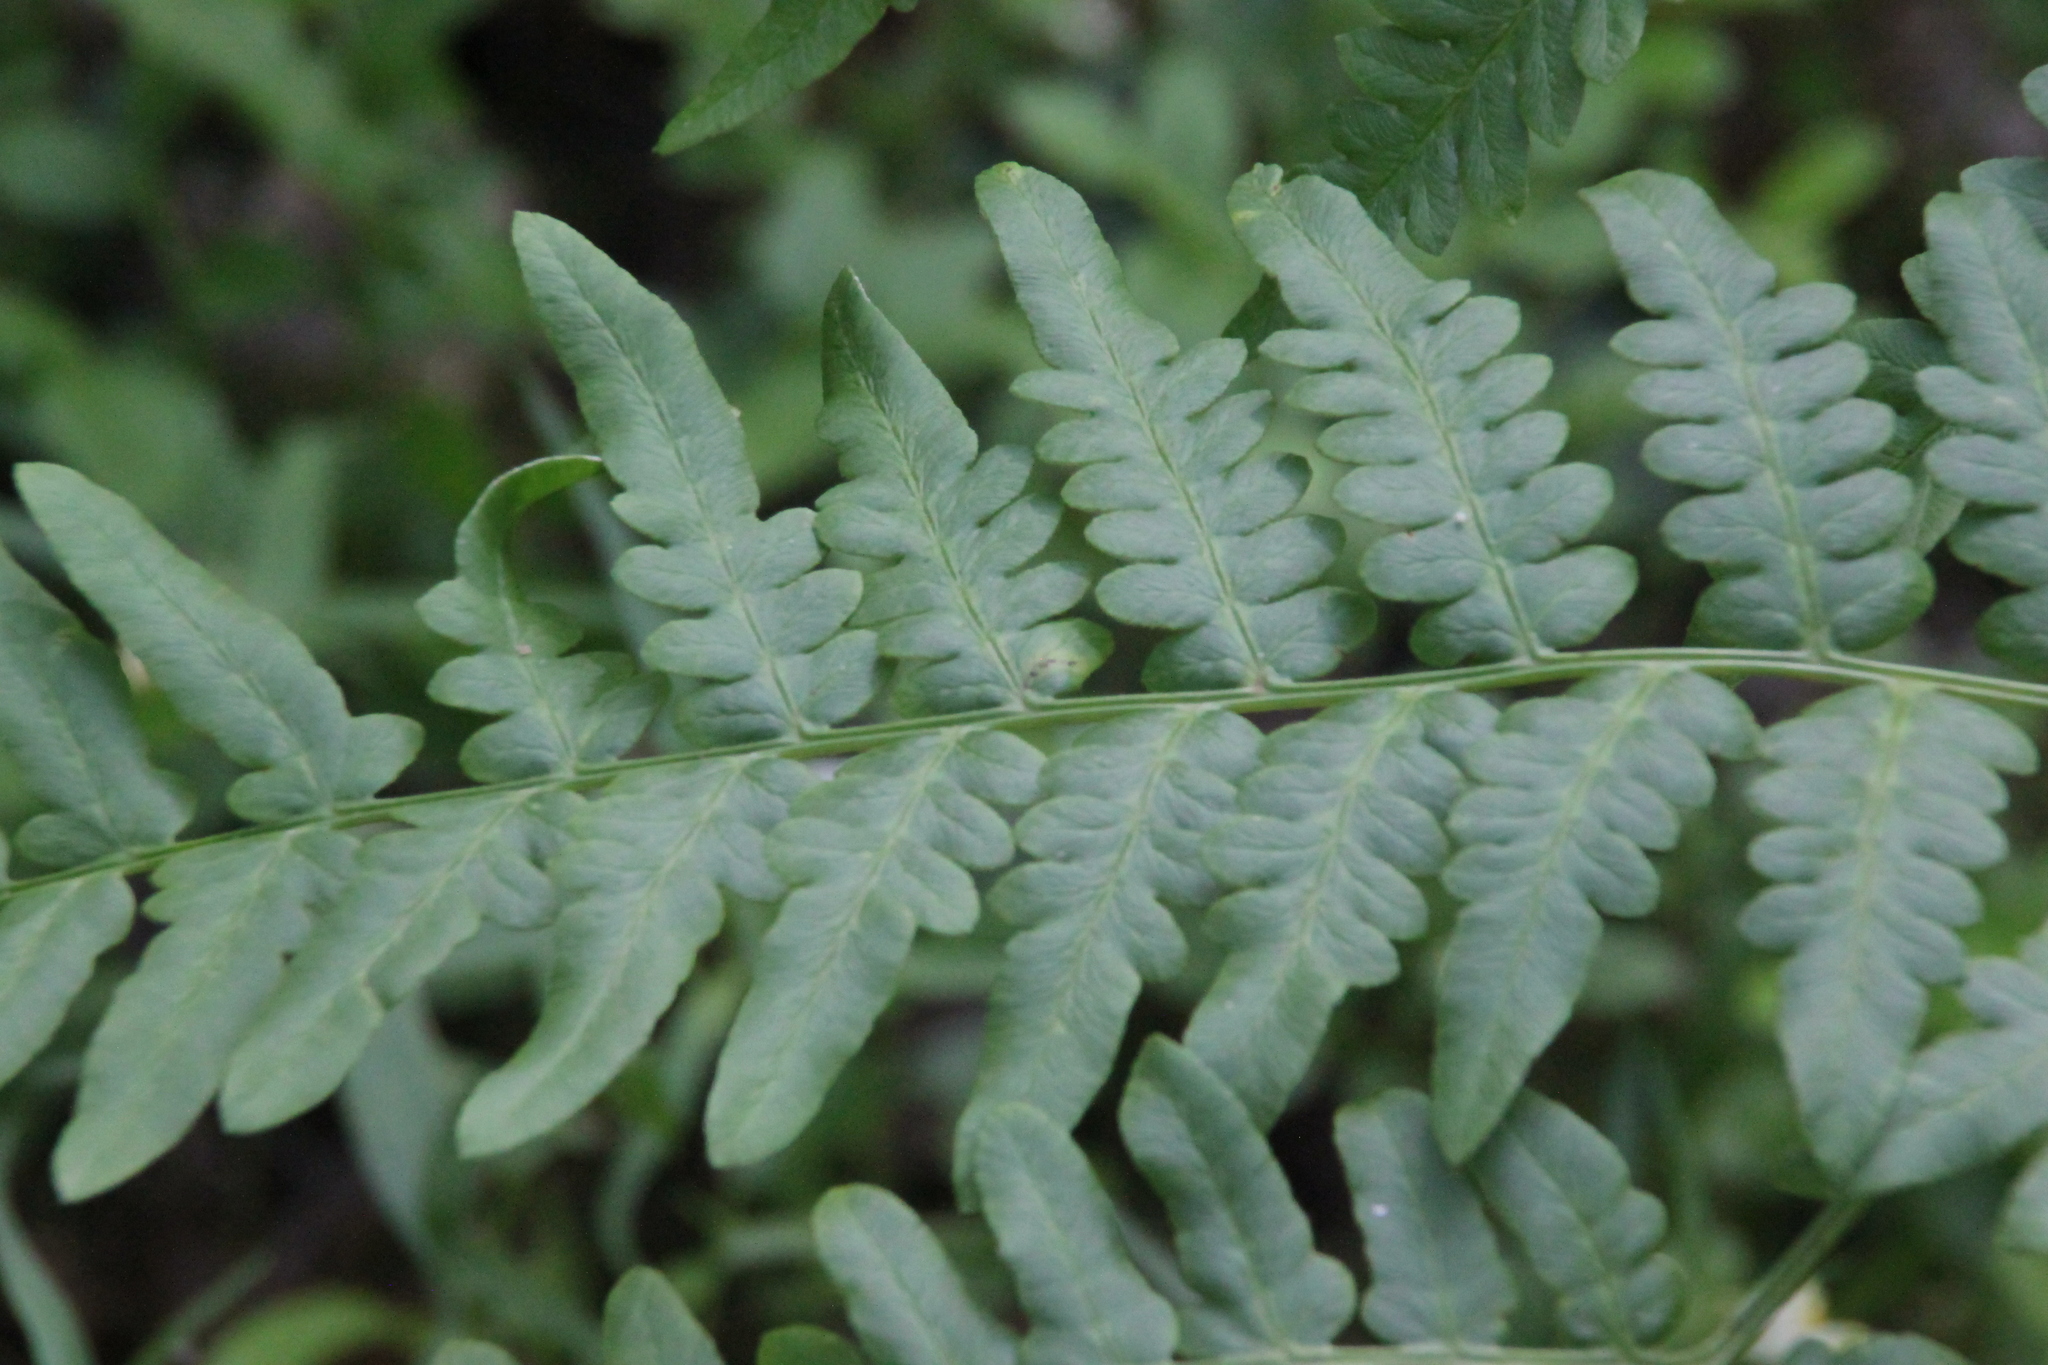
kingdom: Plantae
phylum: Tracheophyta
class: Polypodiopsida
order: Polypodiales
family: Dennstaedtiaceae
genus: Pteridium
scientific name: Pteridium aquilinum
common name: Bracken
